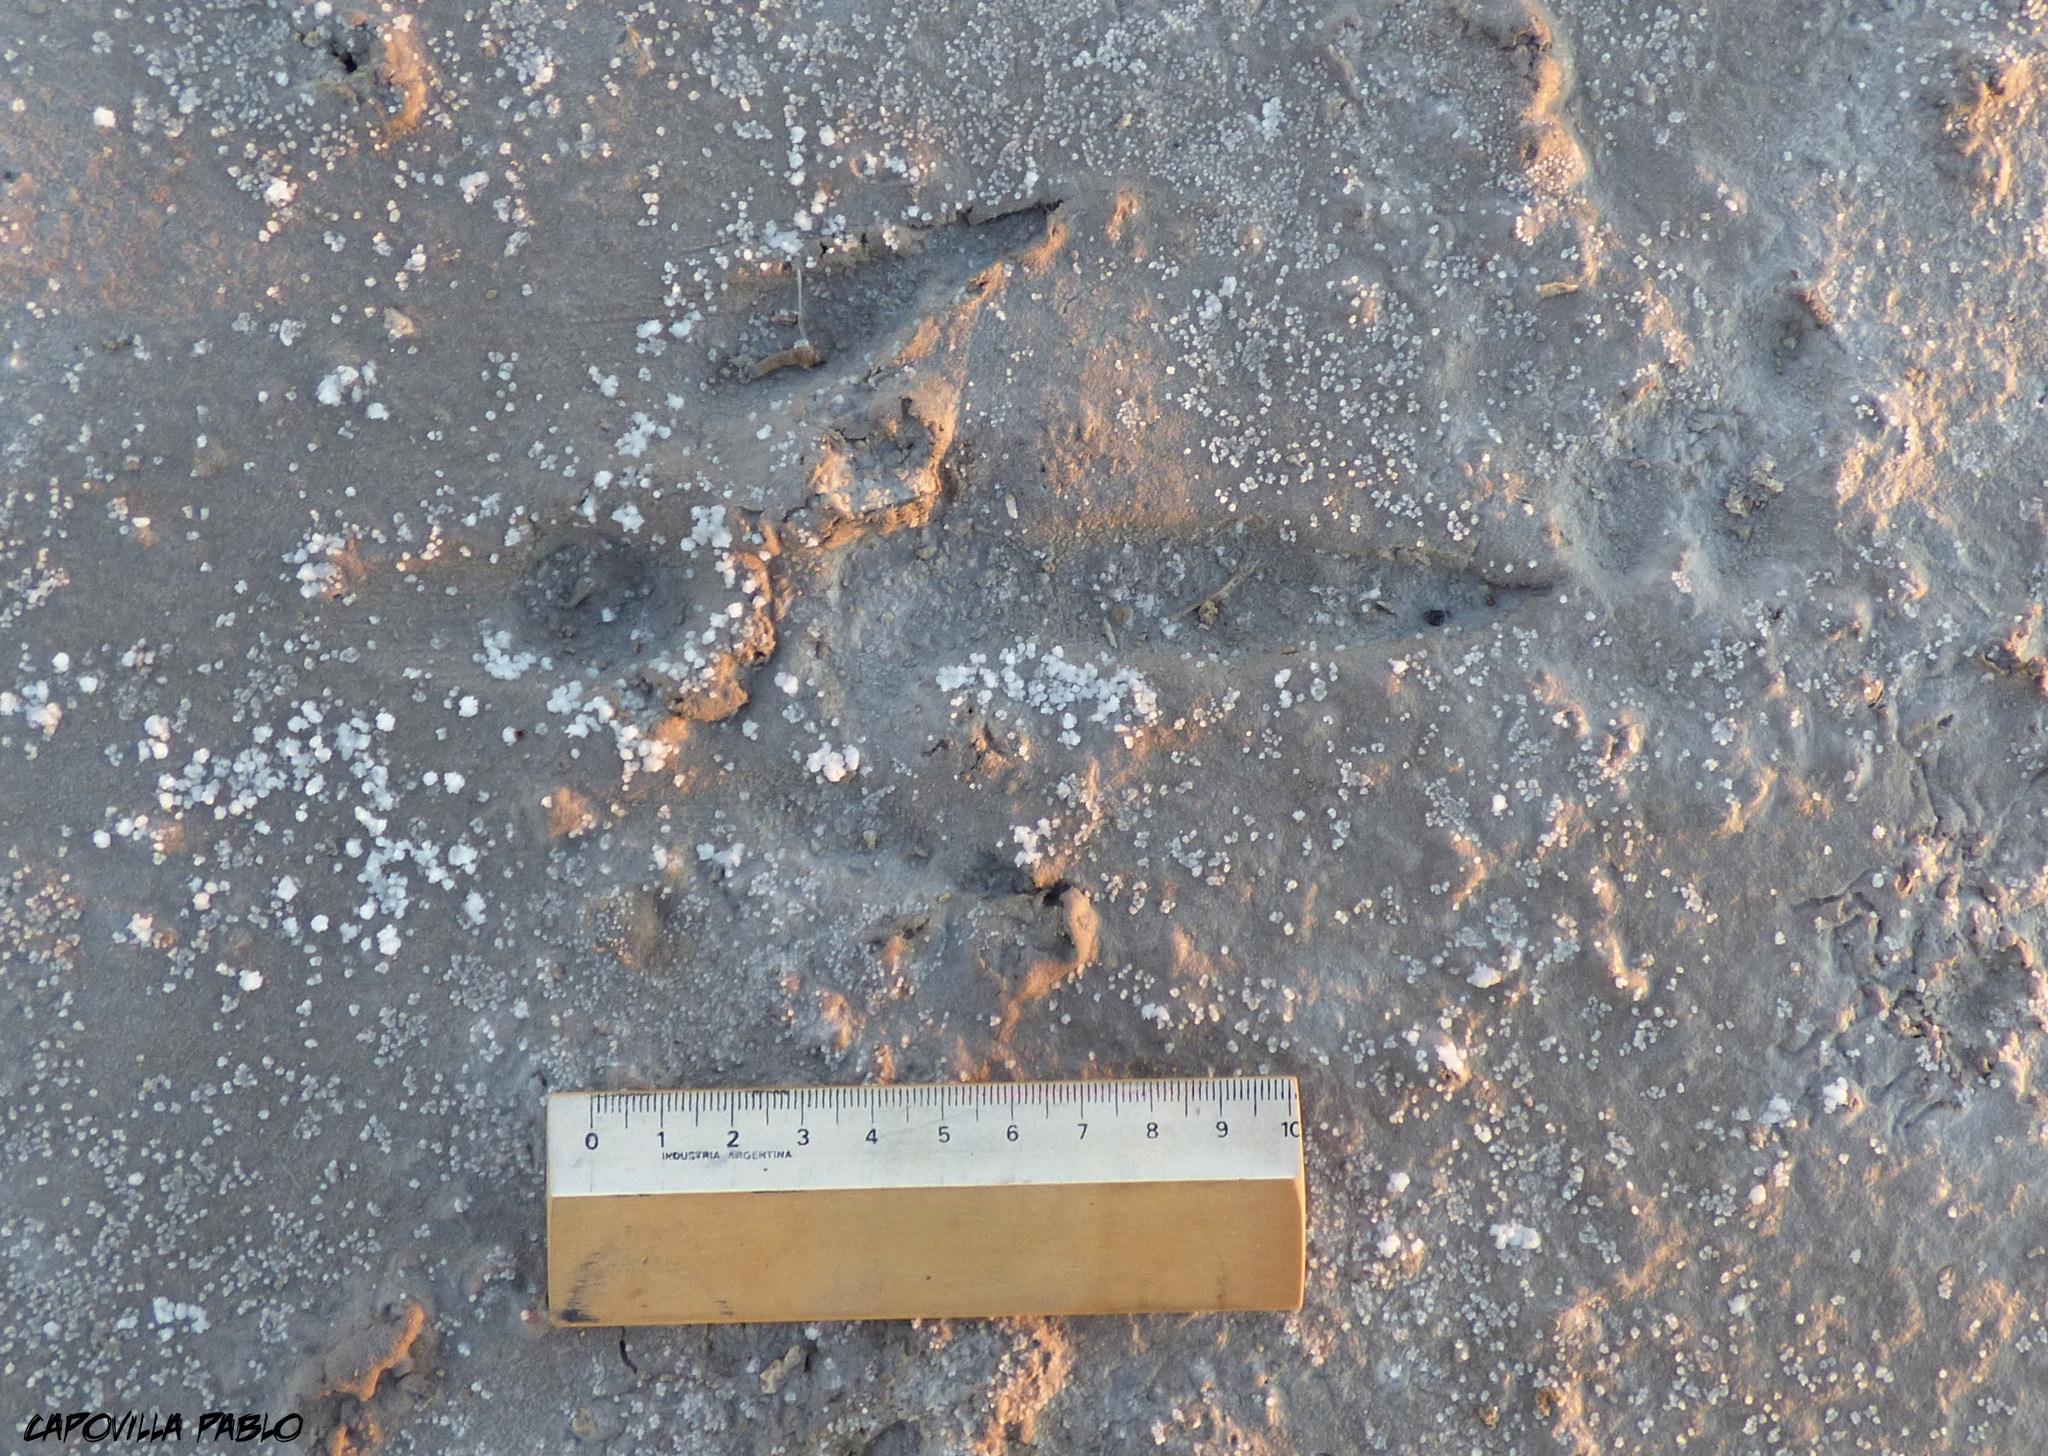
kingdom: Animalia
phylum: Chordata
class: Aves
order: Rheiformes
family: Rheidae
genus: Rhea
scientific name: Rhea americana
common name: Greater rhea
